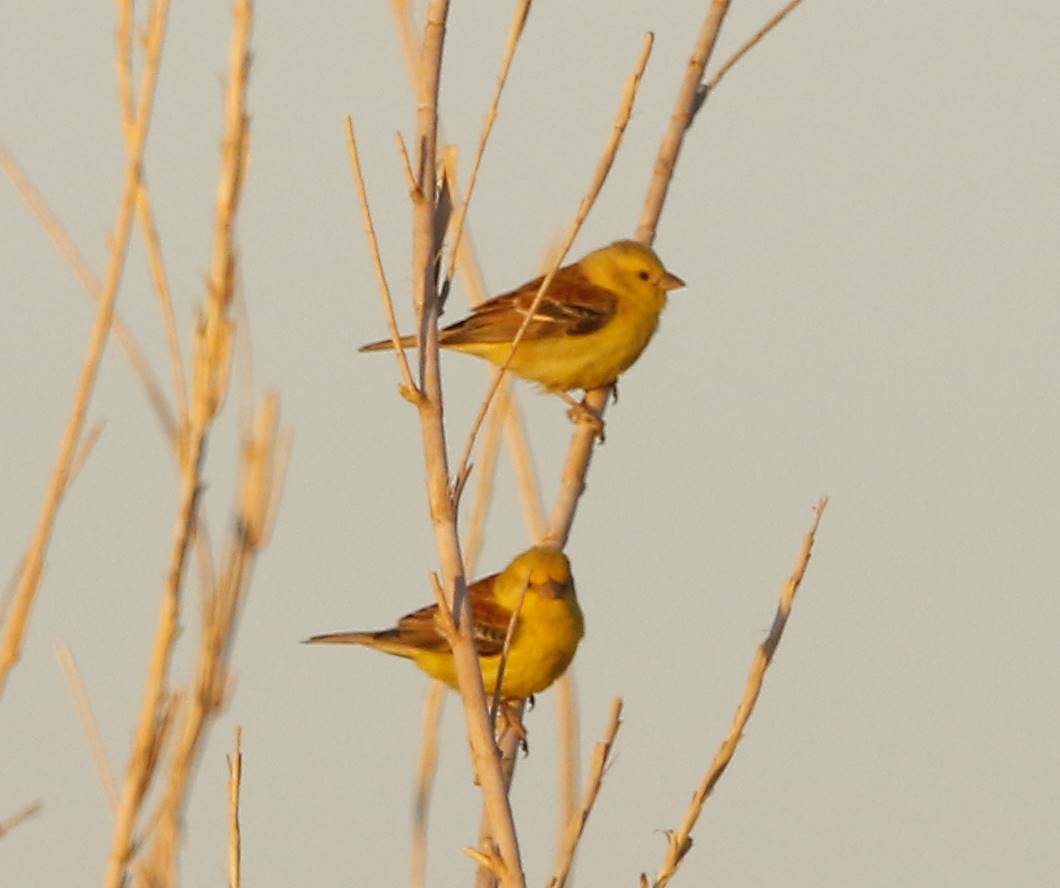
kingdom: Animalia
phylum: Chordata
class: Aves
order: Passeriformes
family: Passeridae
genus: Passer
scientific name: Passer luteus
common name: Sudan golden sparrow
